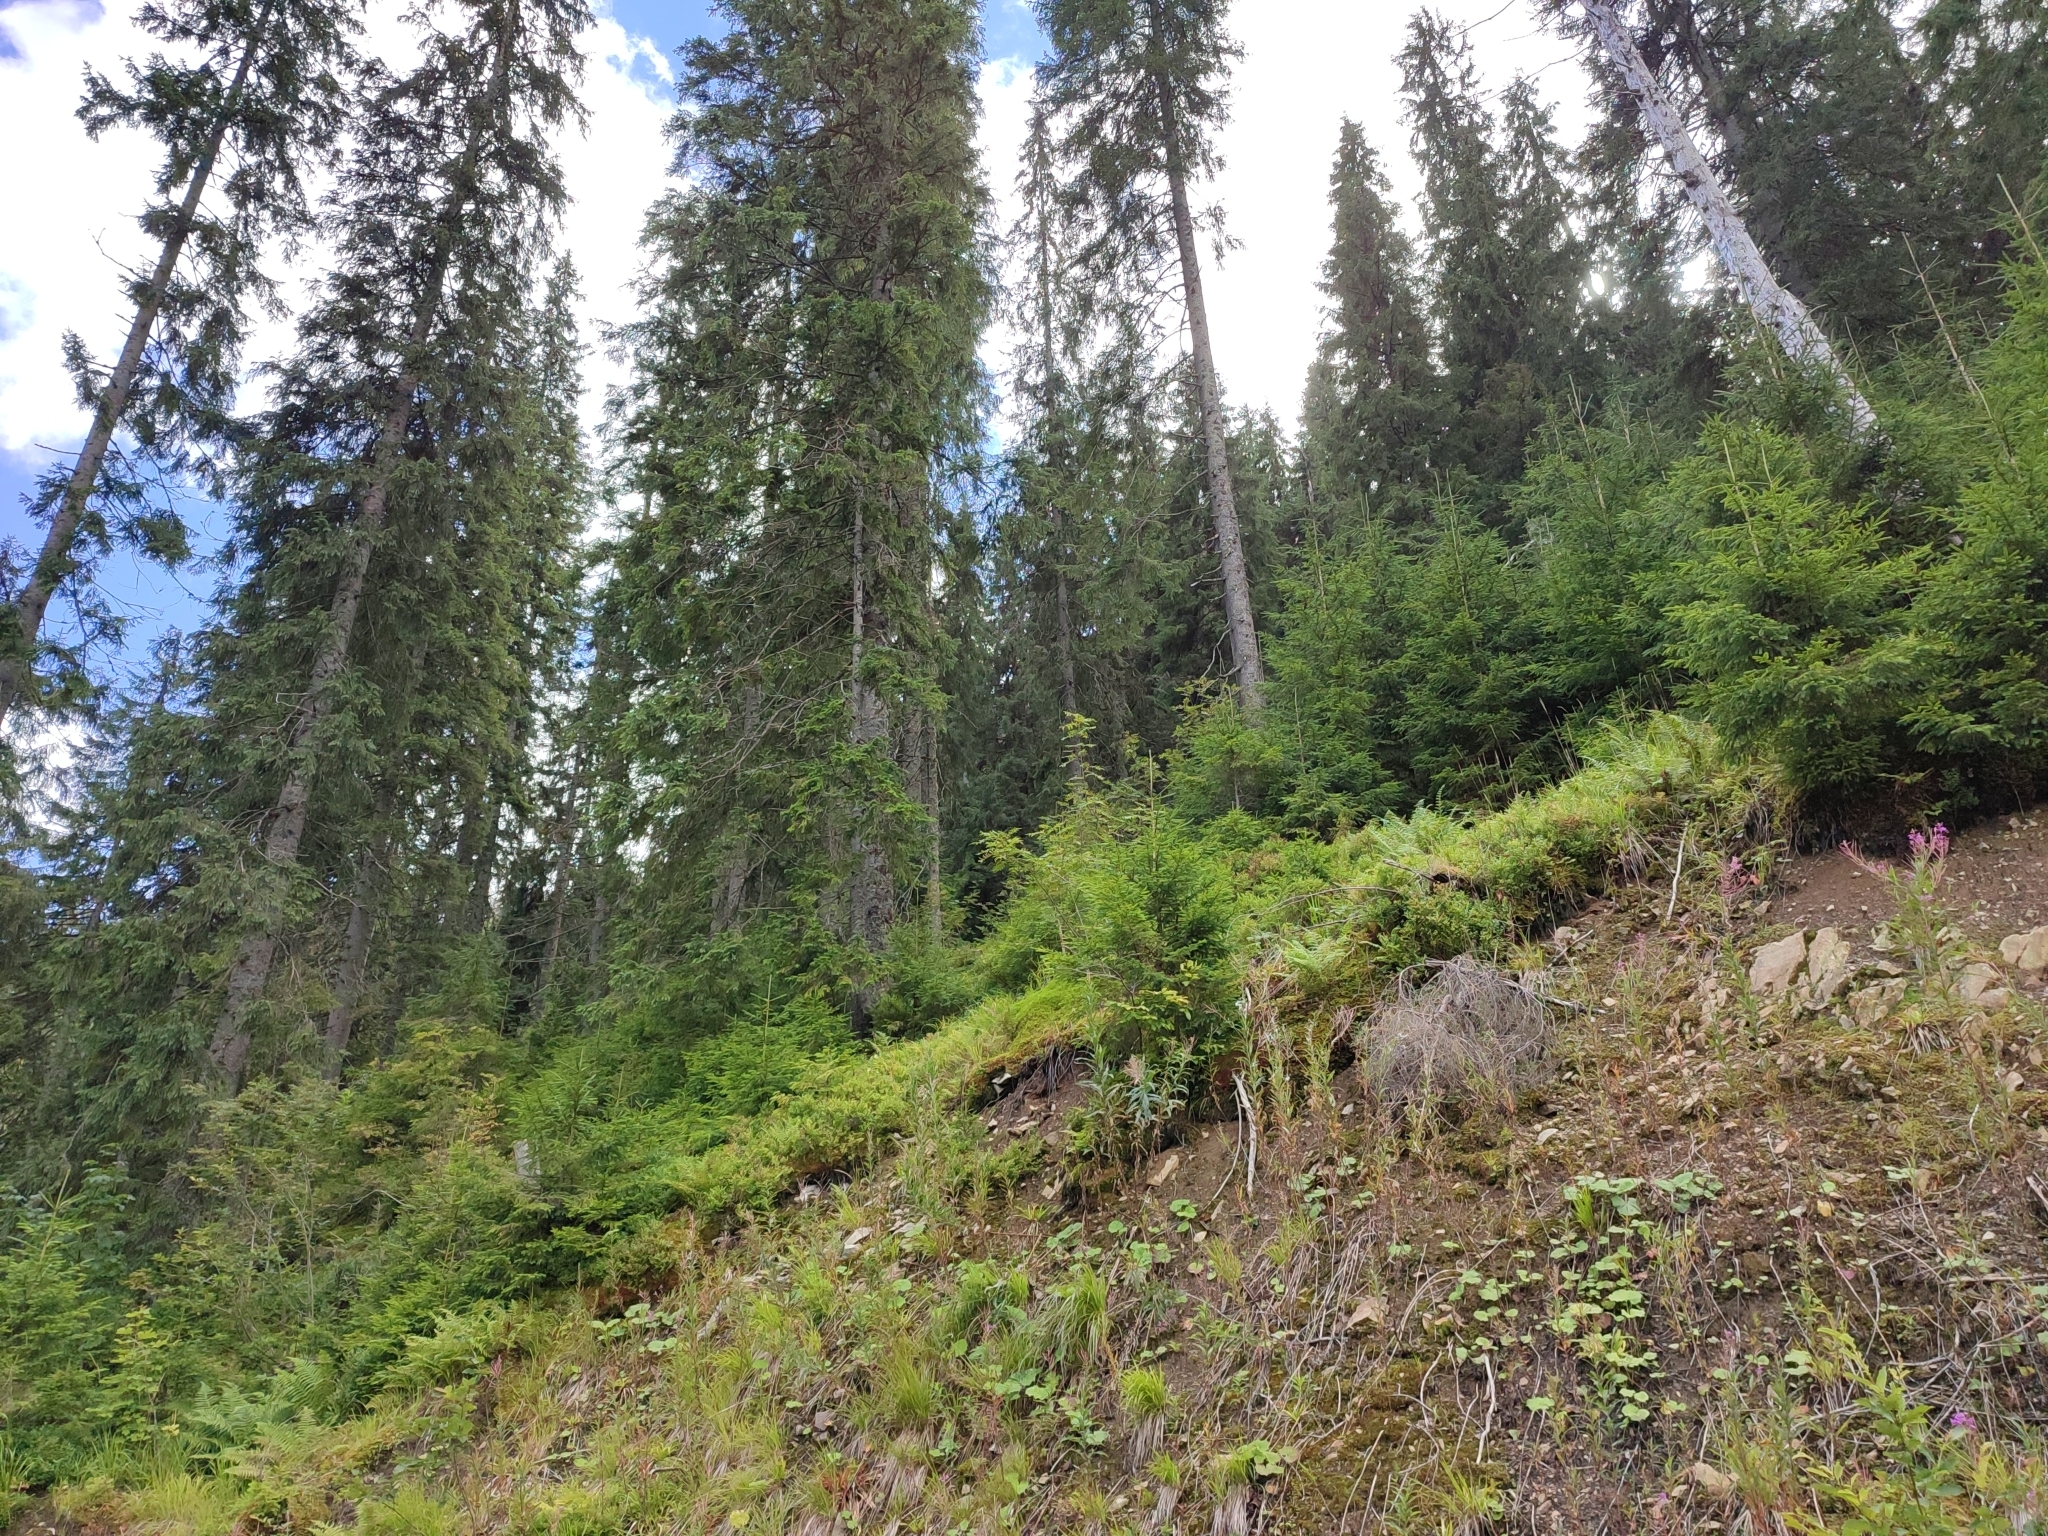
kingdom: Plantae
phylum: Tracheophyta
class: Pinopsida
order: Pinales
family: Pinaceae
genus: Picea
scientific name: Picea abies
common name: Norway spruce
